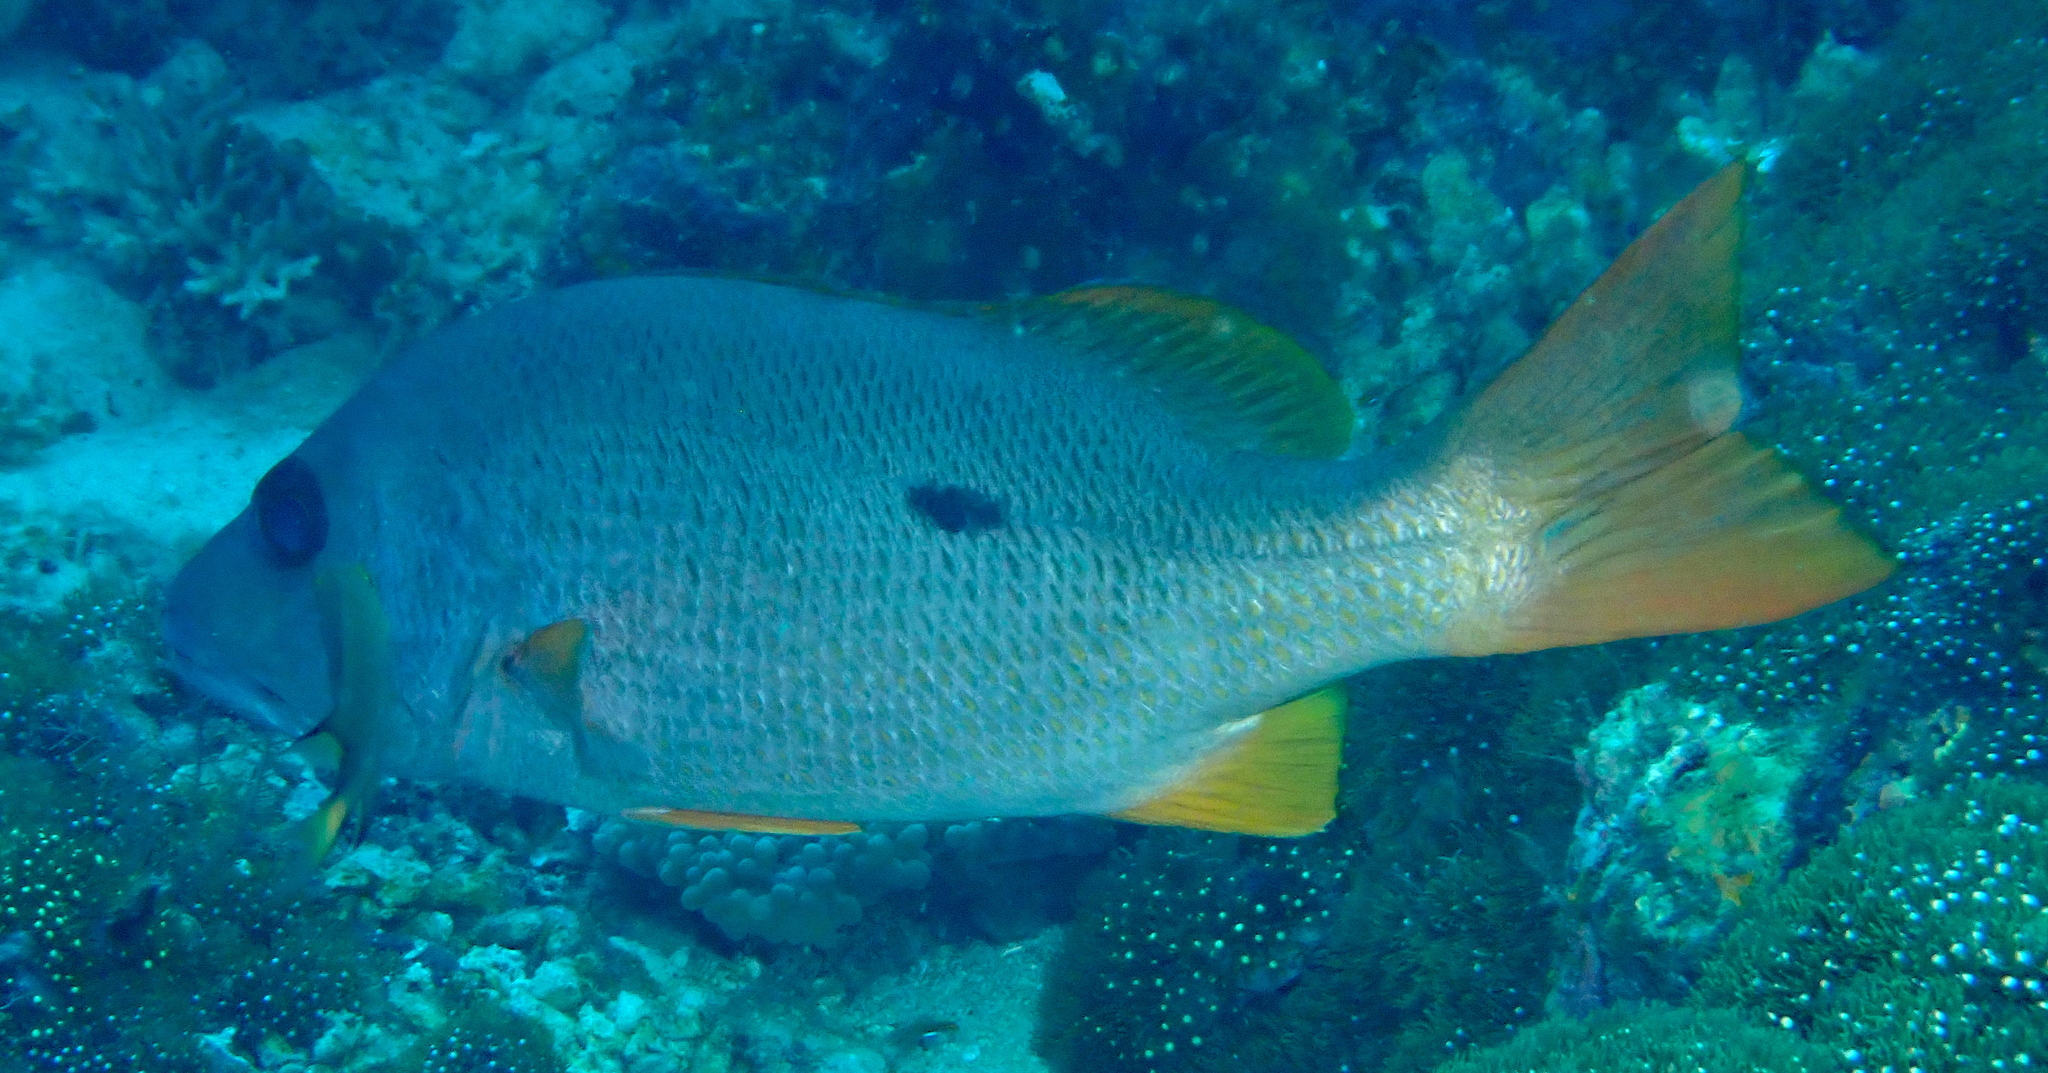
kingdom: Animalia
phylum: Chordata
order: Perciformes
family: Lutjanidae
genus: Lutjanus
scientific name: Lutjanus monostigma
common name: Onespot snapper
